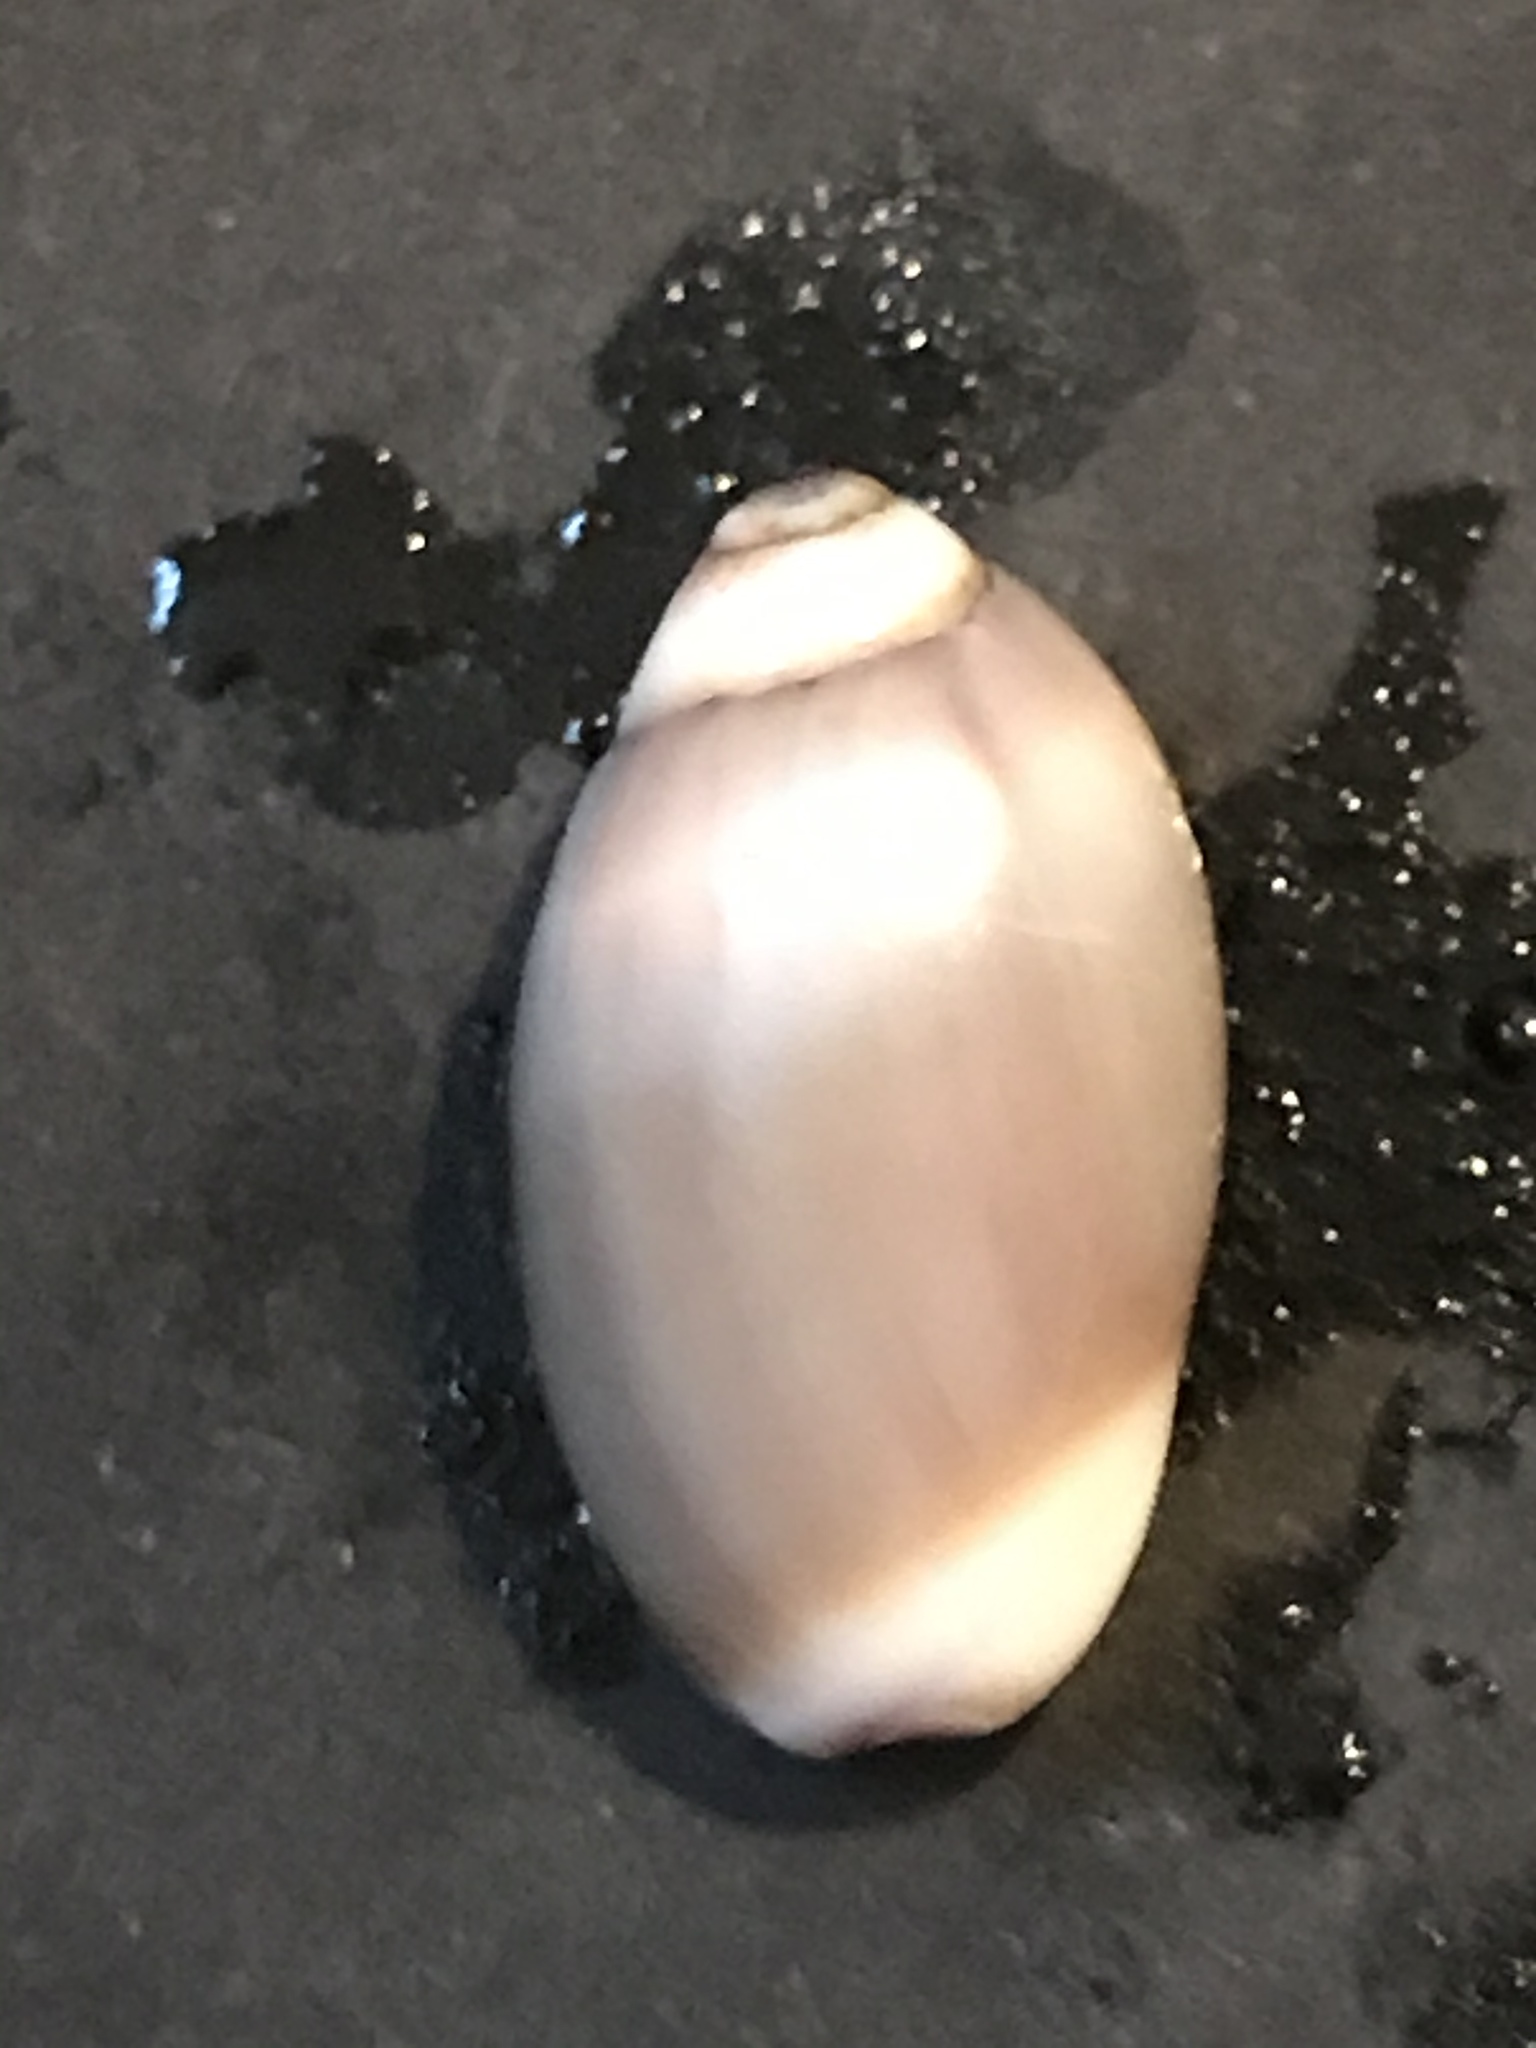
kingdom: Animalia
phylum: Mollusca
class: Gastropoda
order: Neogastropoda
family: Olividae
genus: Callianax
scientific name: Callianax biplicata
